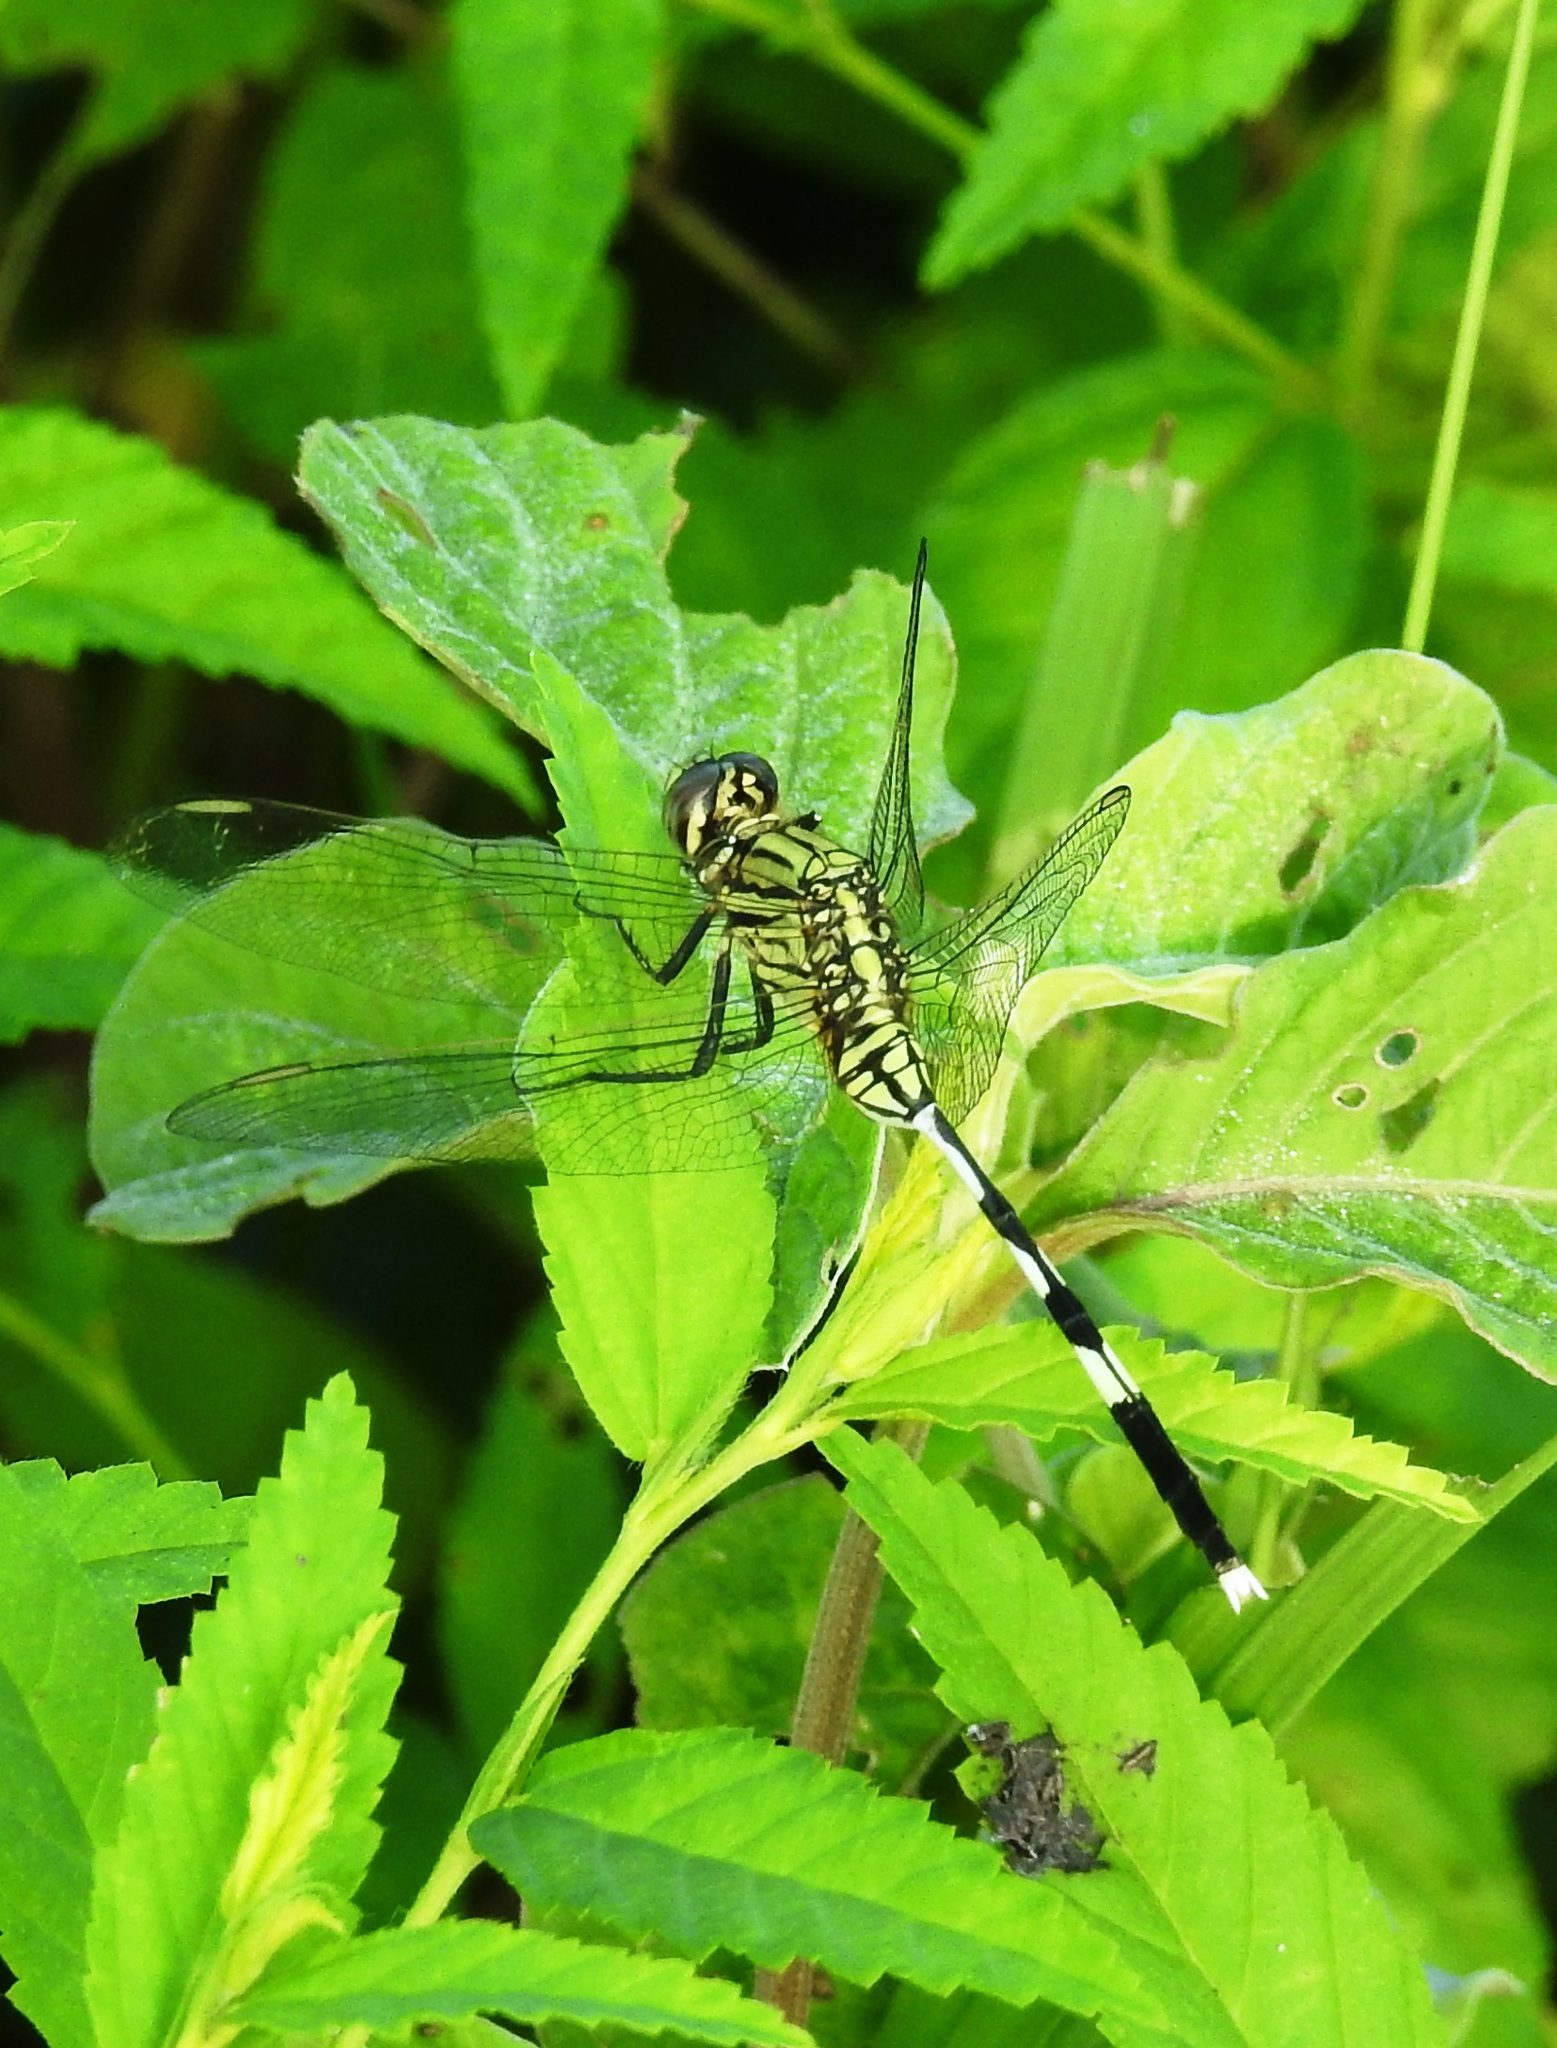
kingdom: Animalia
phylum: Arthropoda
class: Insecta
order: Odonata
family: Libellulidae
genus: Orthetrum
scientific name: Orthetrum sabina
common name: Slender skimmer
